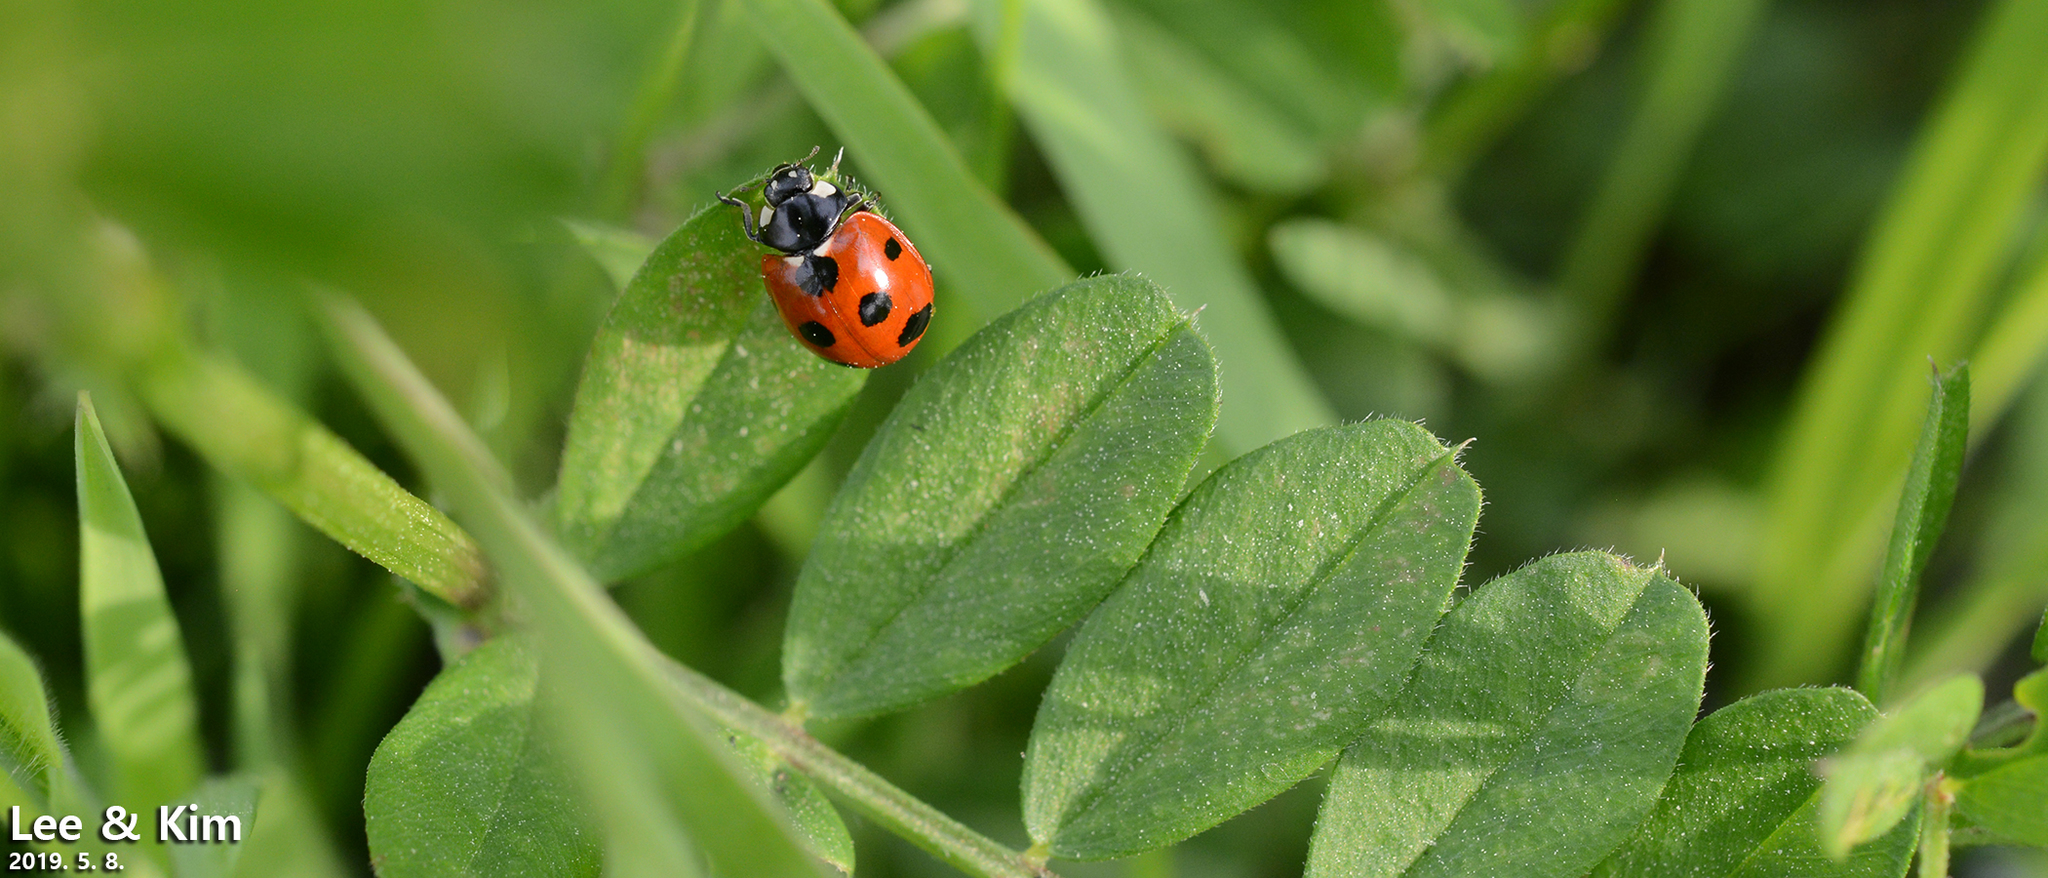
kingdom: Animalia
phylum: Arthropoda
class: Insecta
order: Coleoptera
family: Coccinellidae
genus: Coccinella
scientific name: Coccinella septempunctata
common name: Sevenspotted lady beetle
